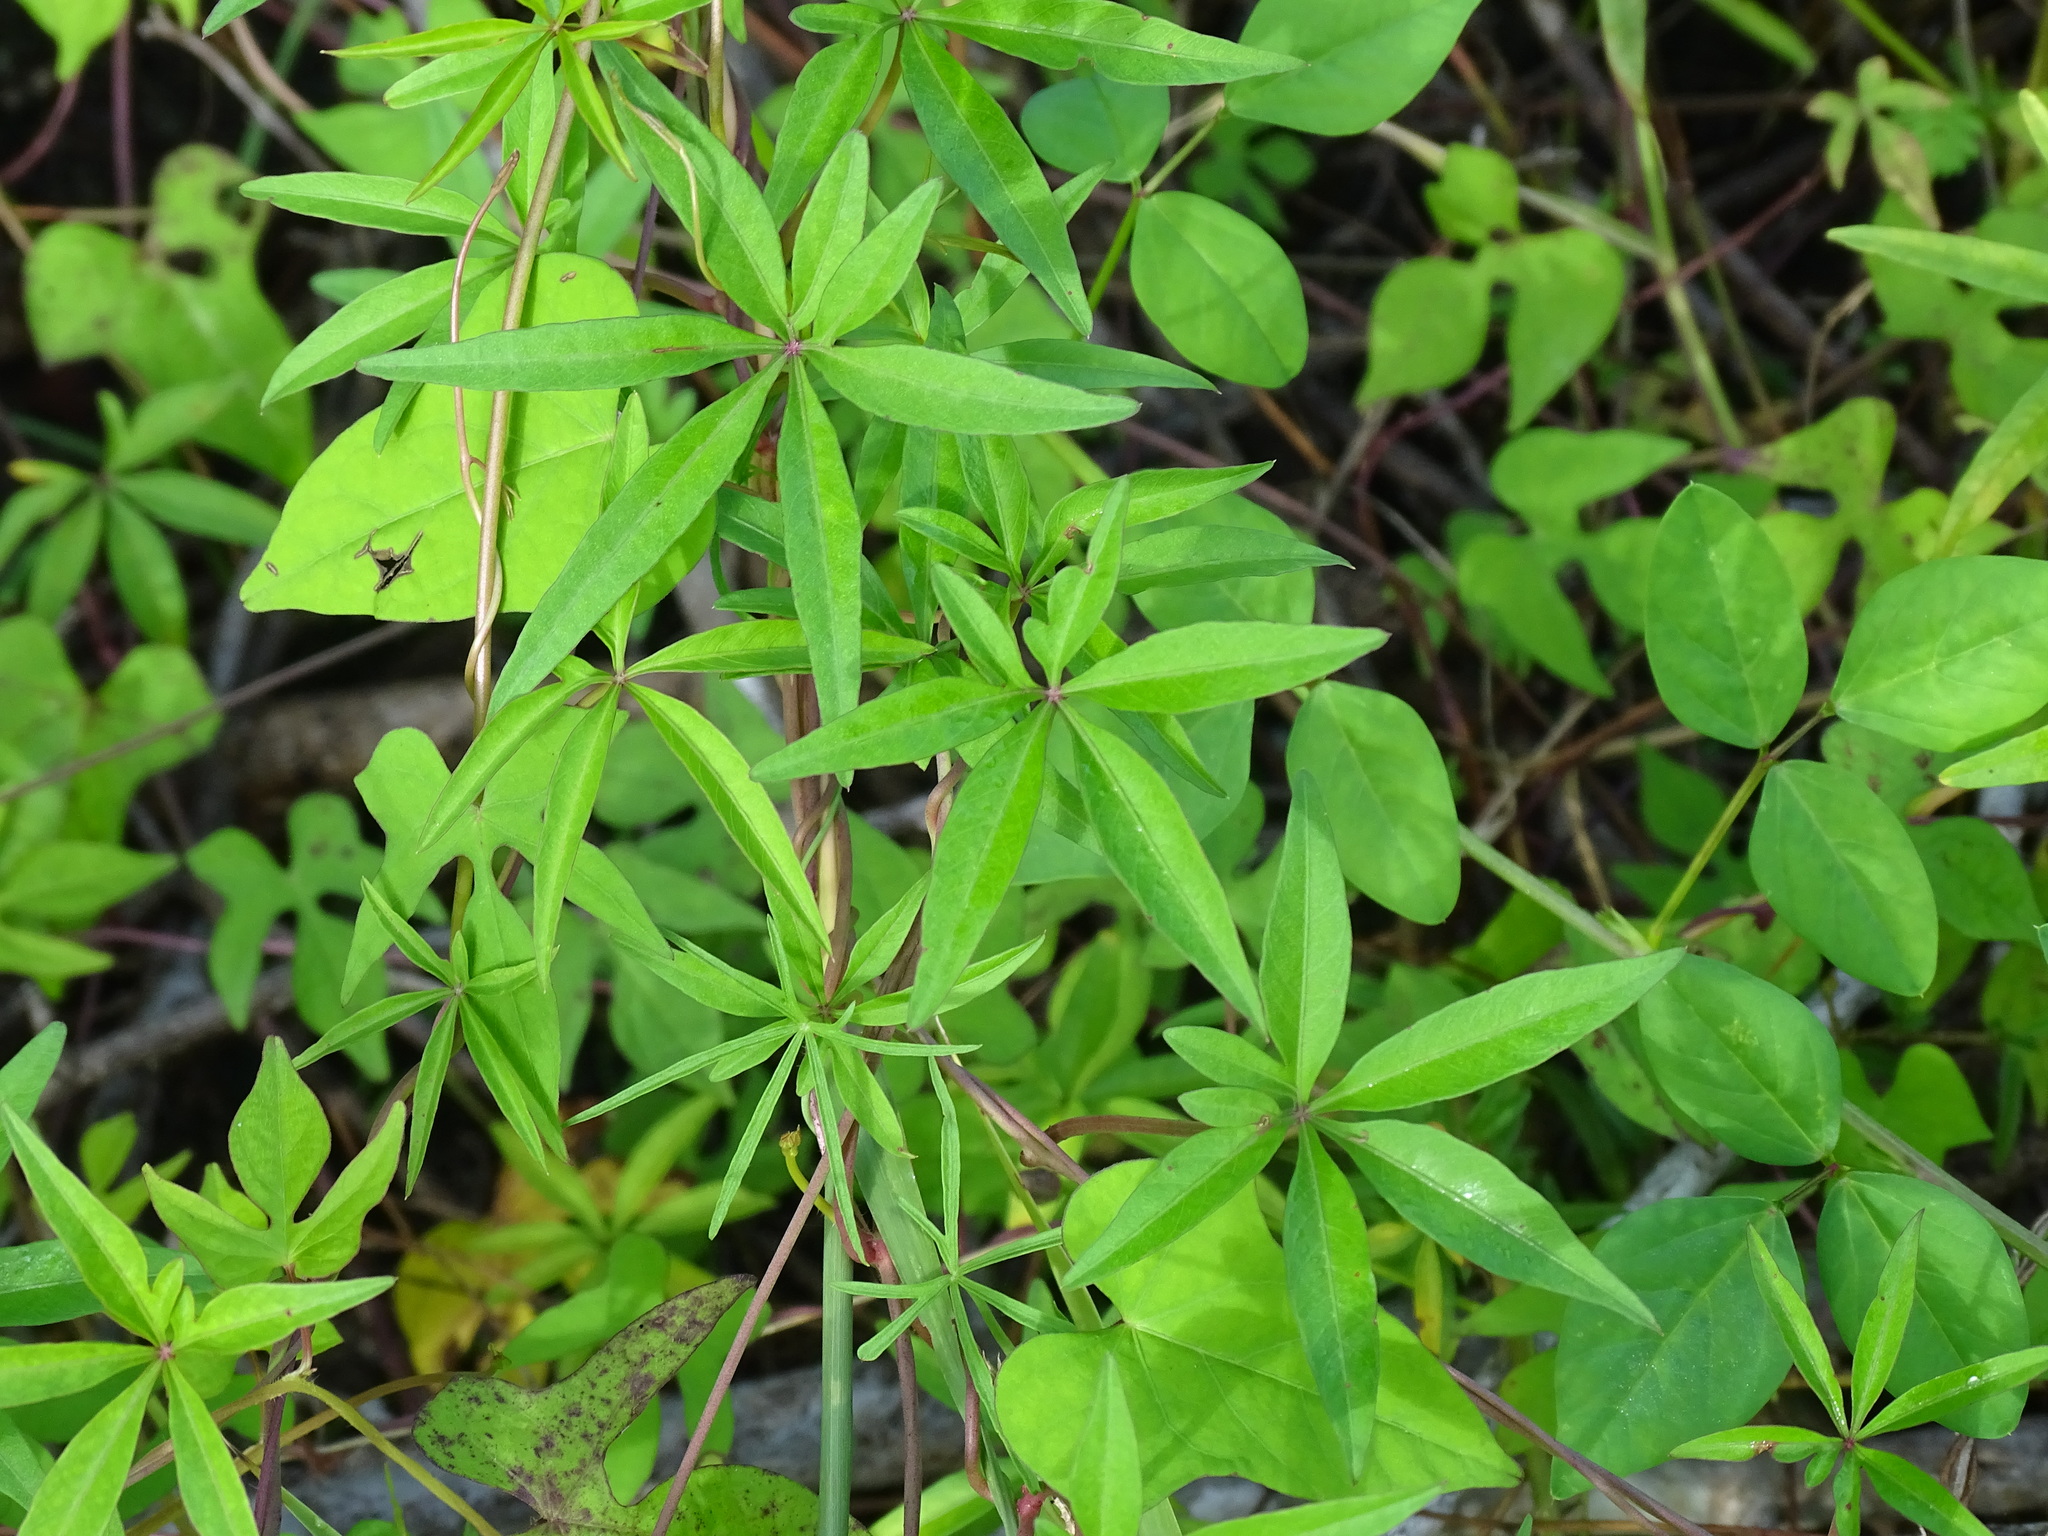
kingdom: Plantae
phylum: Tracheophyta
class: Magnoliopsida
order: Solanales
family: Convolvulaceae
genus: Ipomoea
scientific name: Ipomoea sororia
